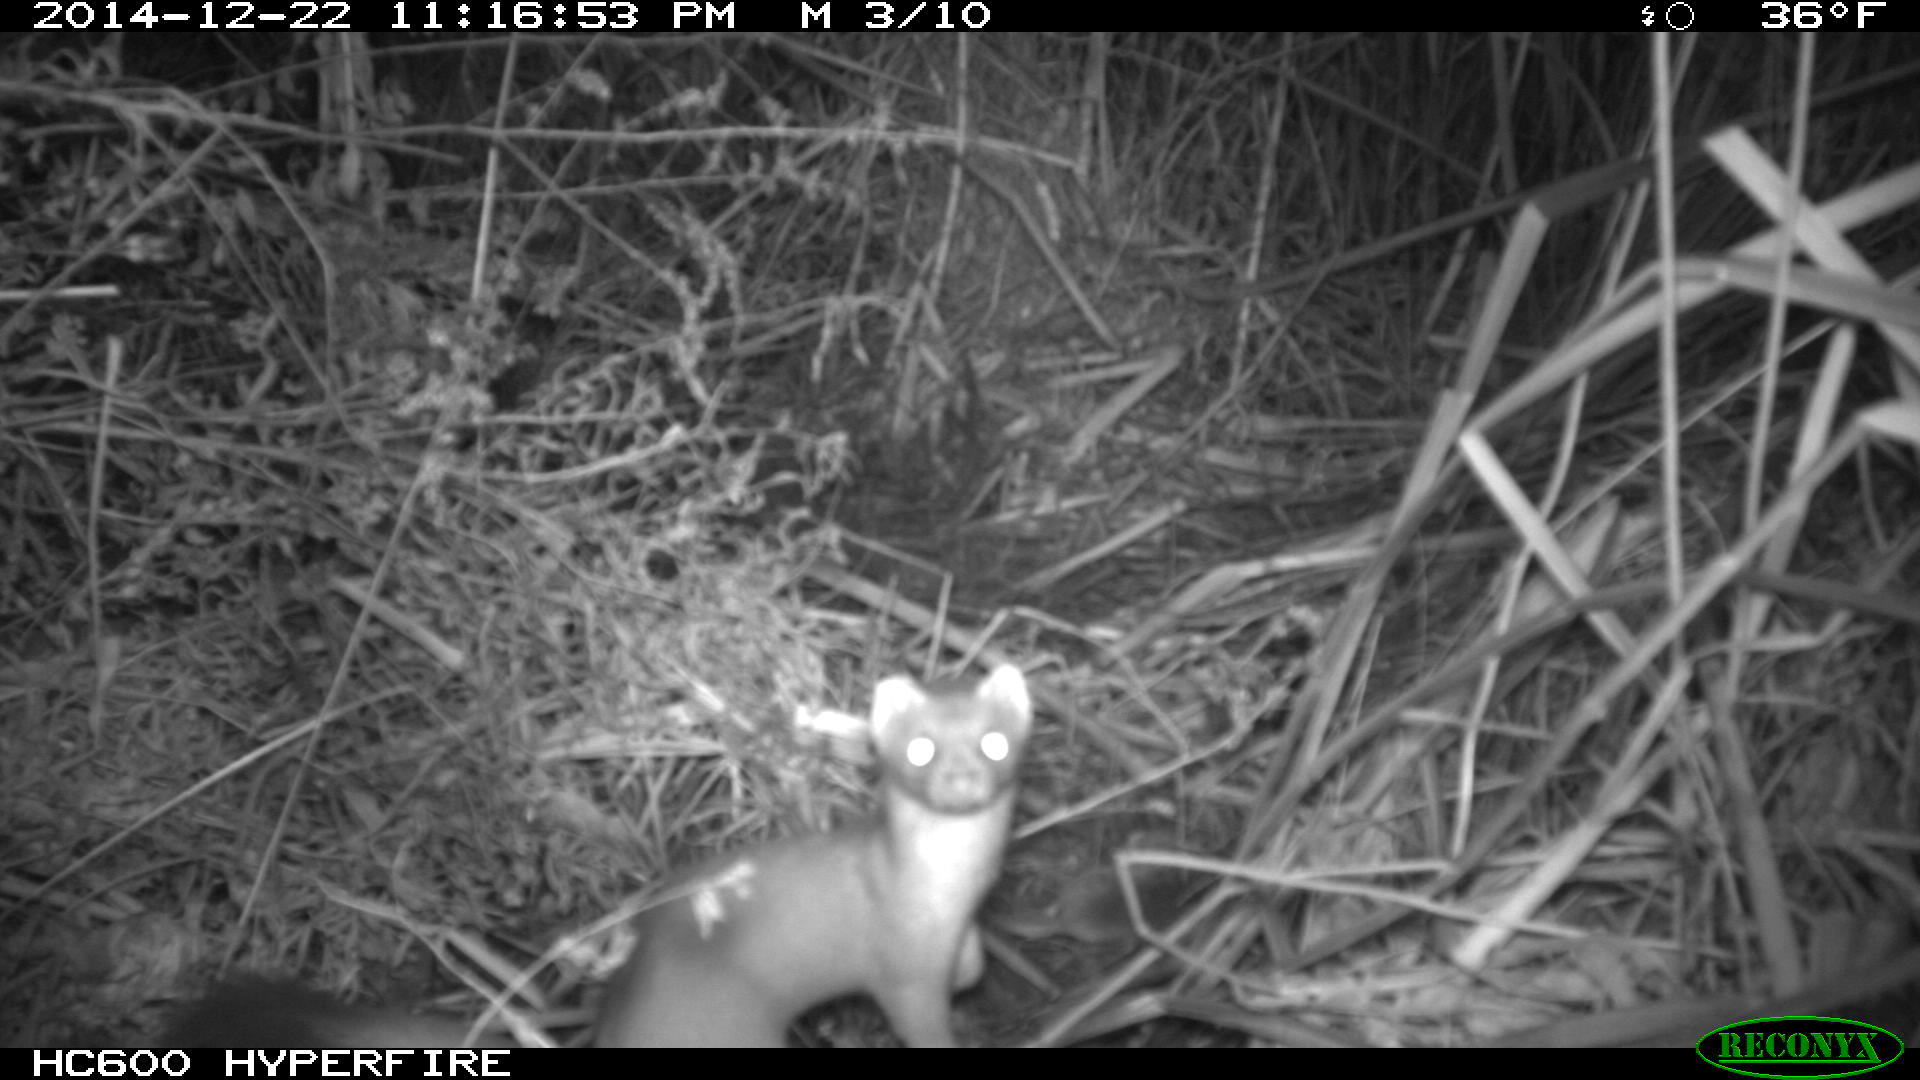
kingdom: Animalia
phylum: Chordata
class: Mammalia
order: Carnivora
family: Mustelidae
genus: Mustela
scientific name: Mustela
